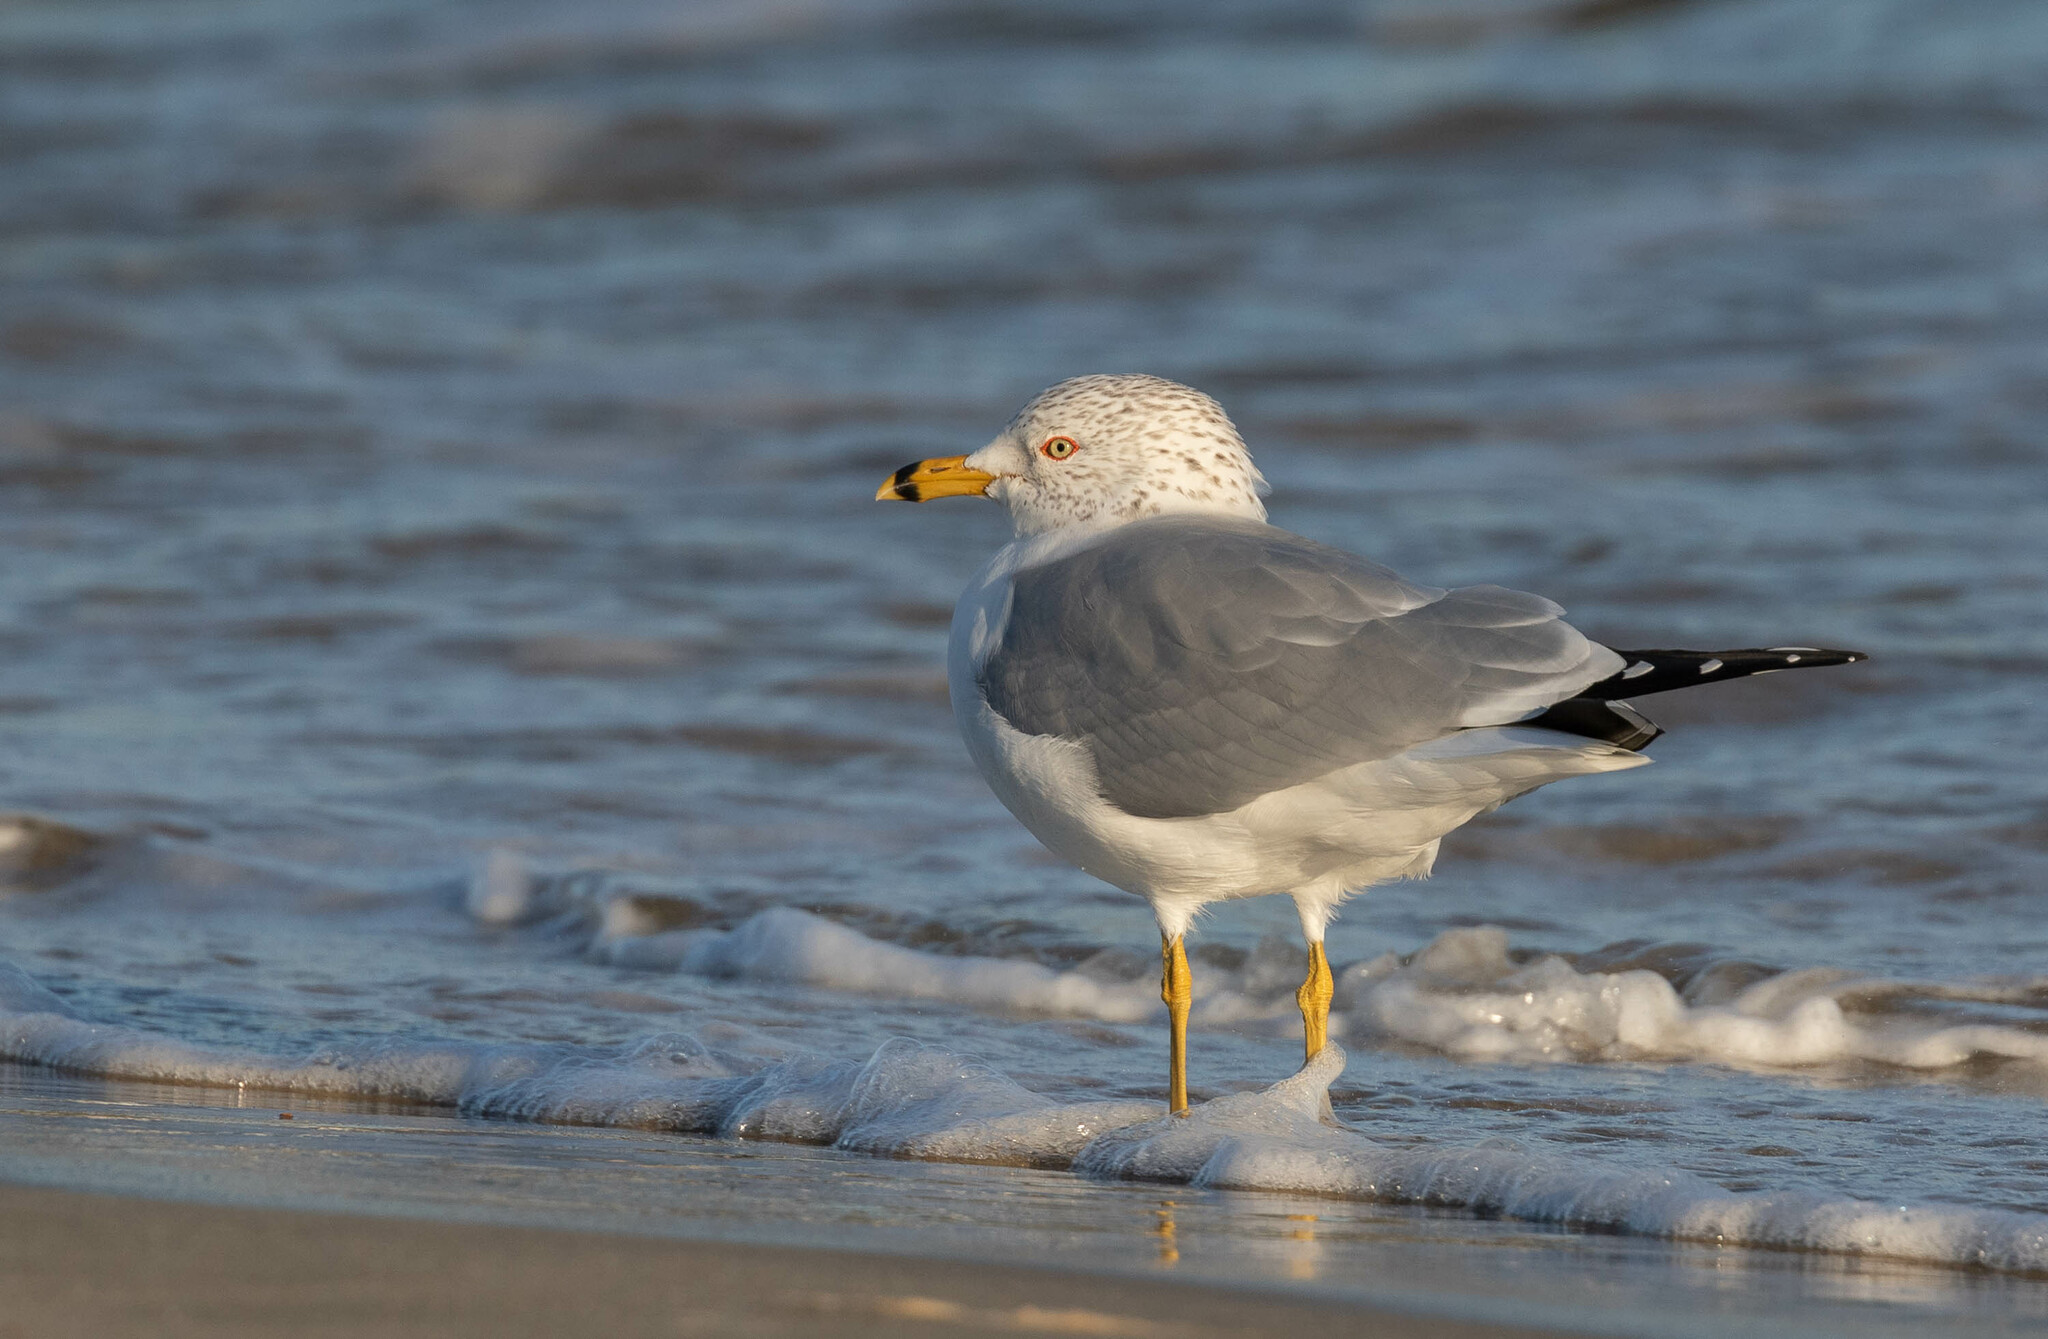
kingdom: Animalia
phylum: Chordata
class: Aves
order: Charadriiformes
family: Laridae
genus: Larus
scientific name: Larus delawarensis
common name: Ring-billed gull
